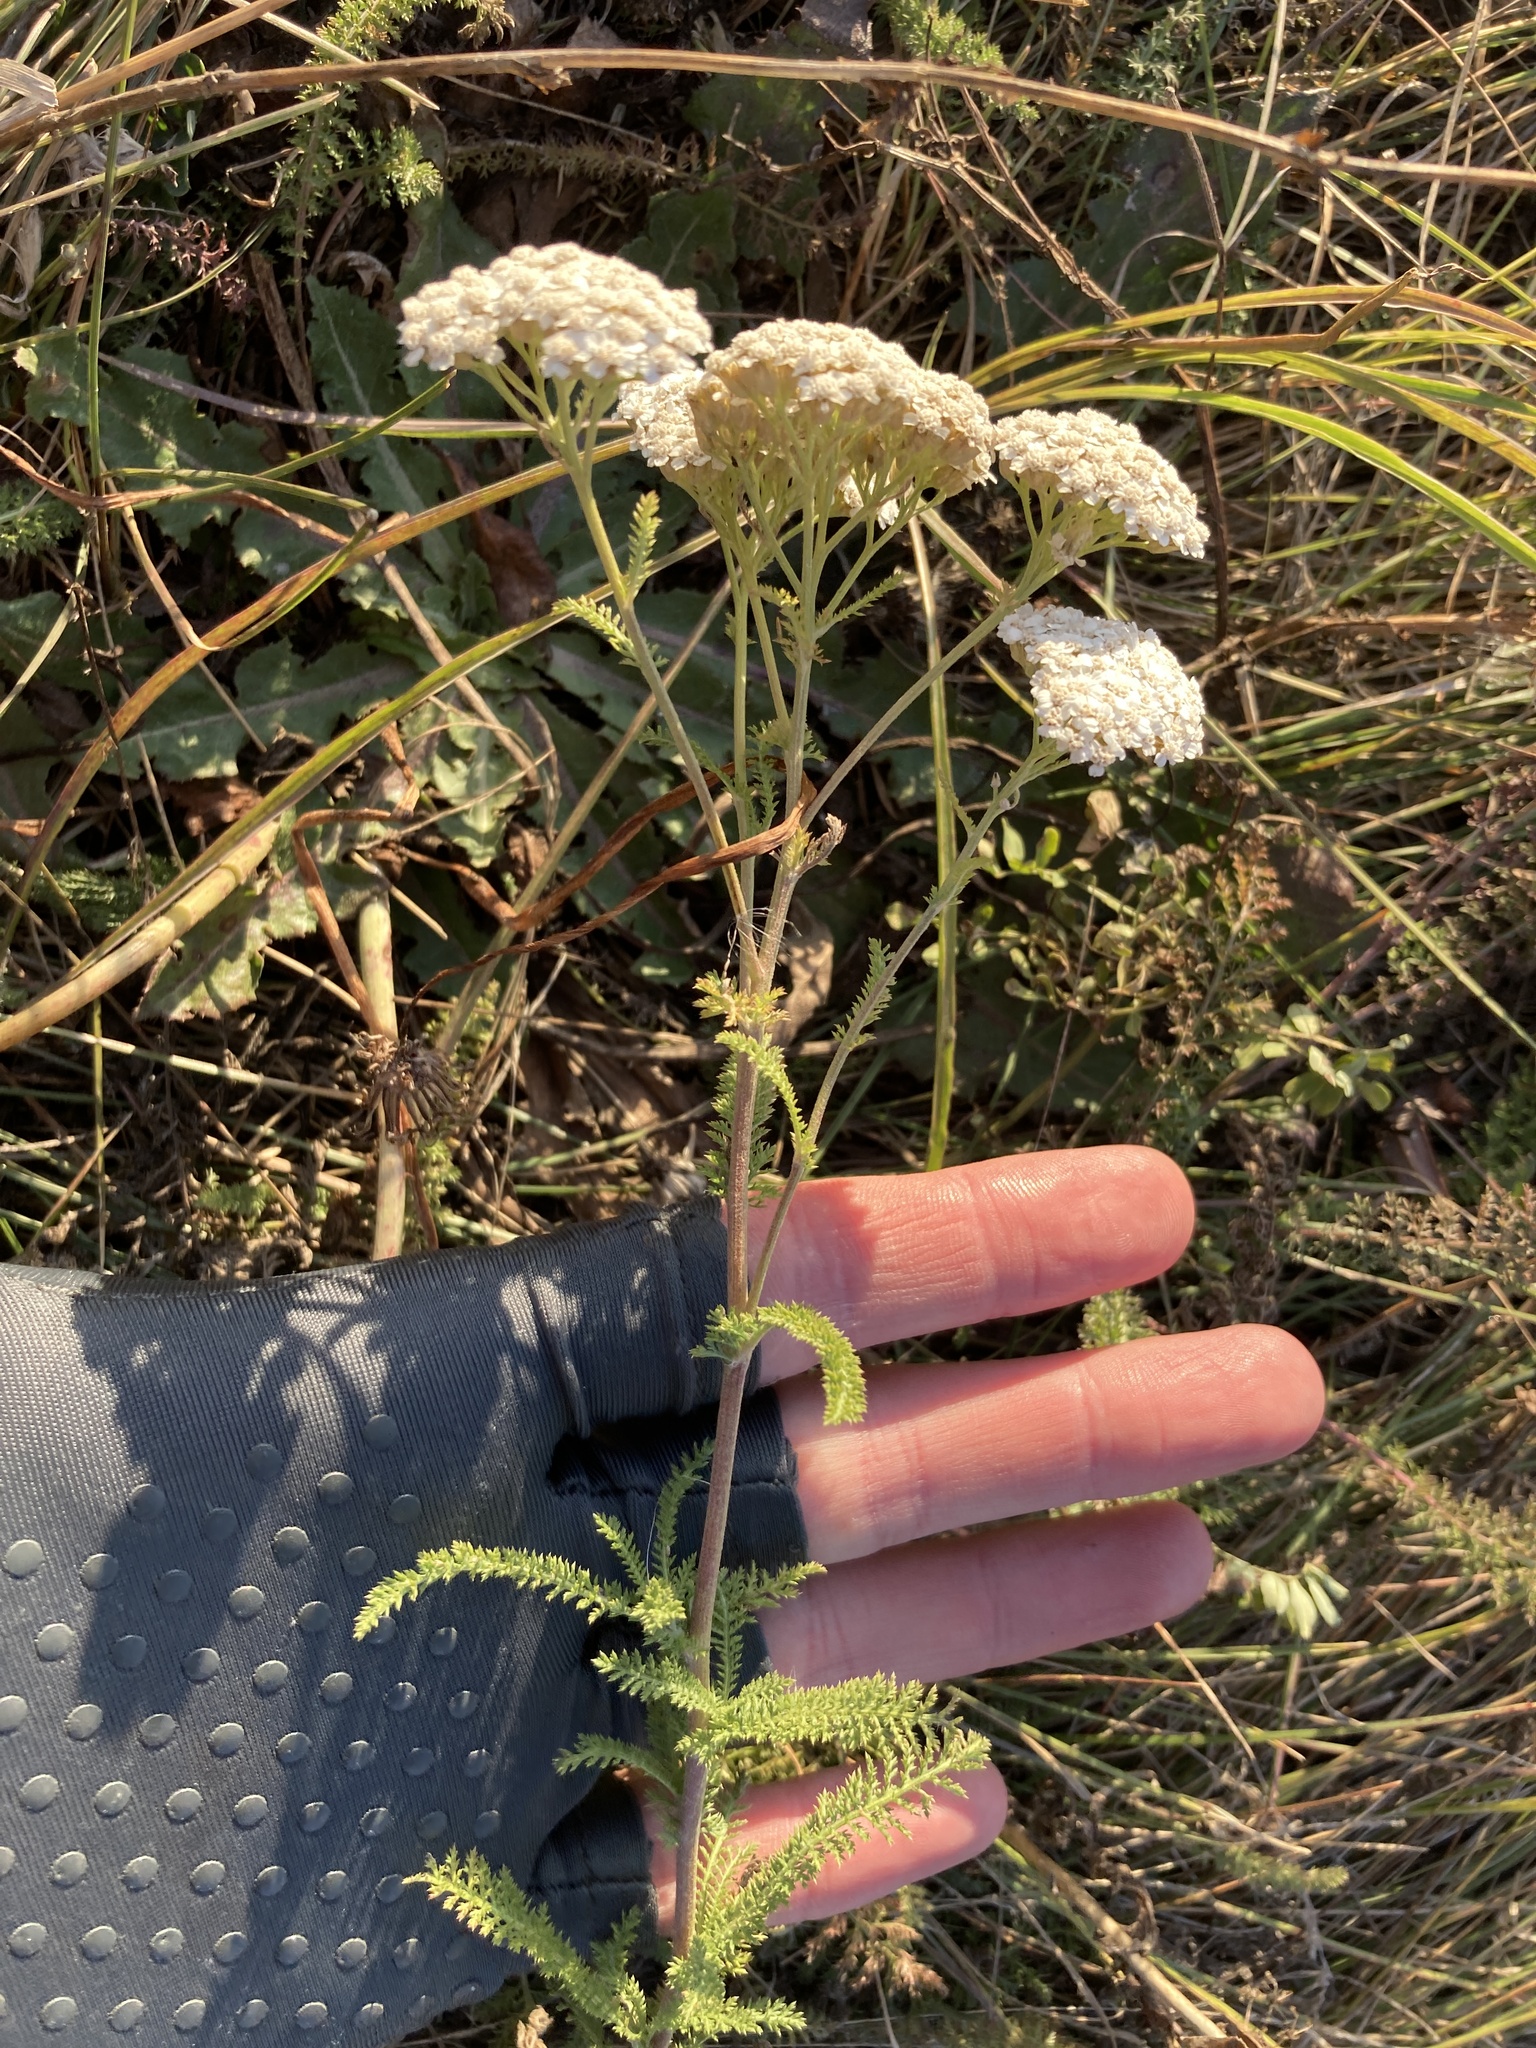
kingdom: Plantae
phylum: Tracheophyta
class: Magnoliopsida
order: Asterales
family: Asteraceae
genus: Achillea
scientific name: Achillea millefolium
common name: Yarrow
